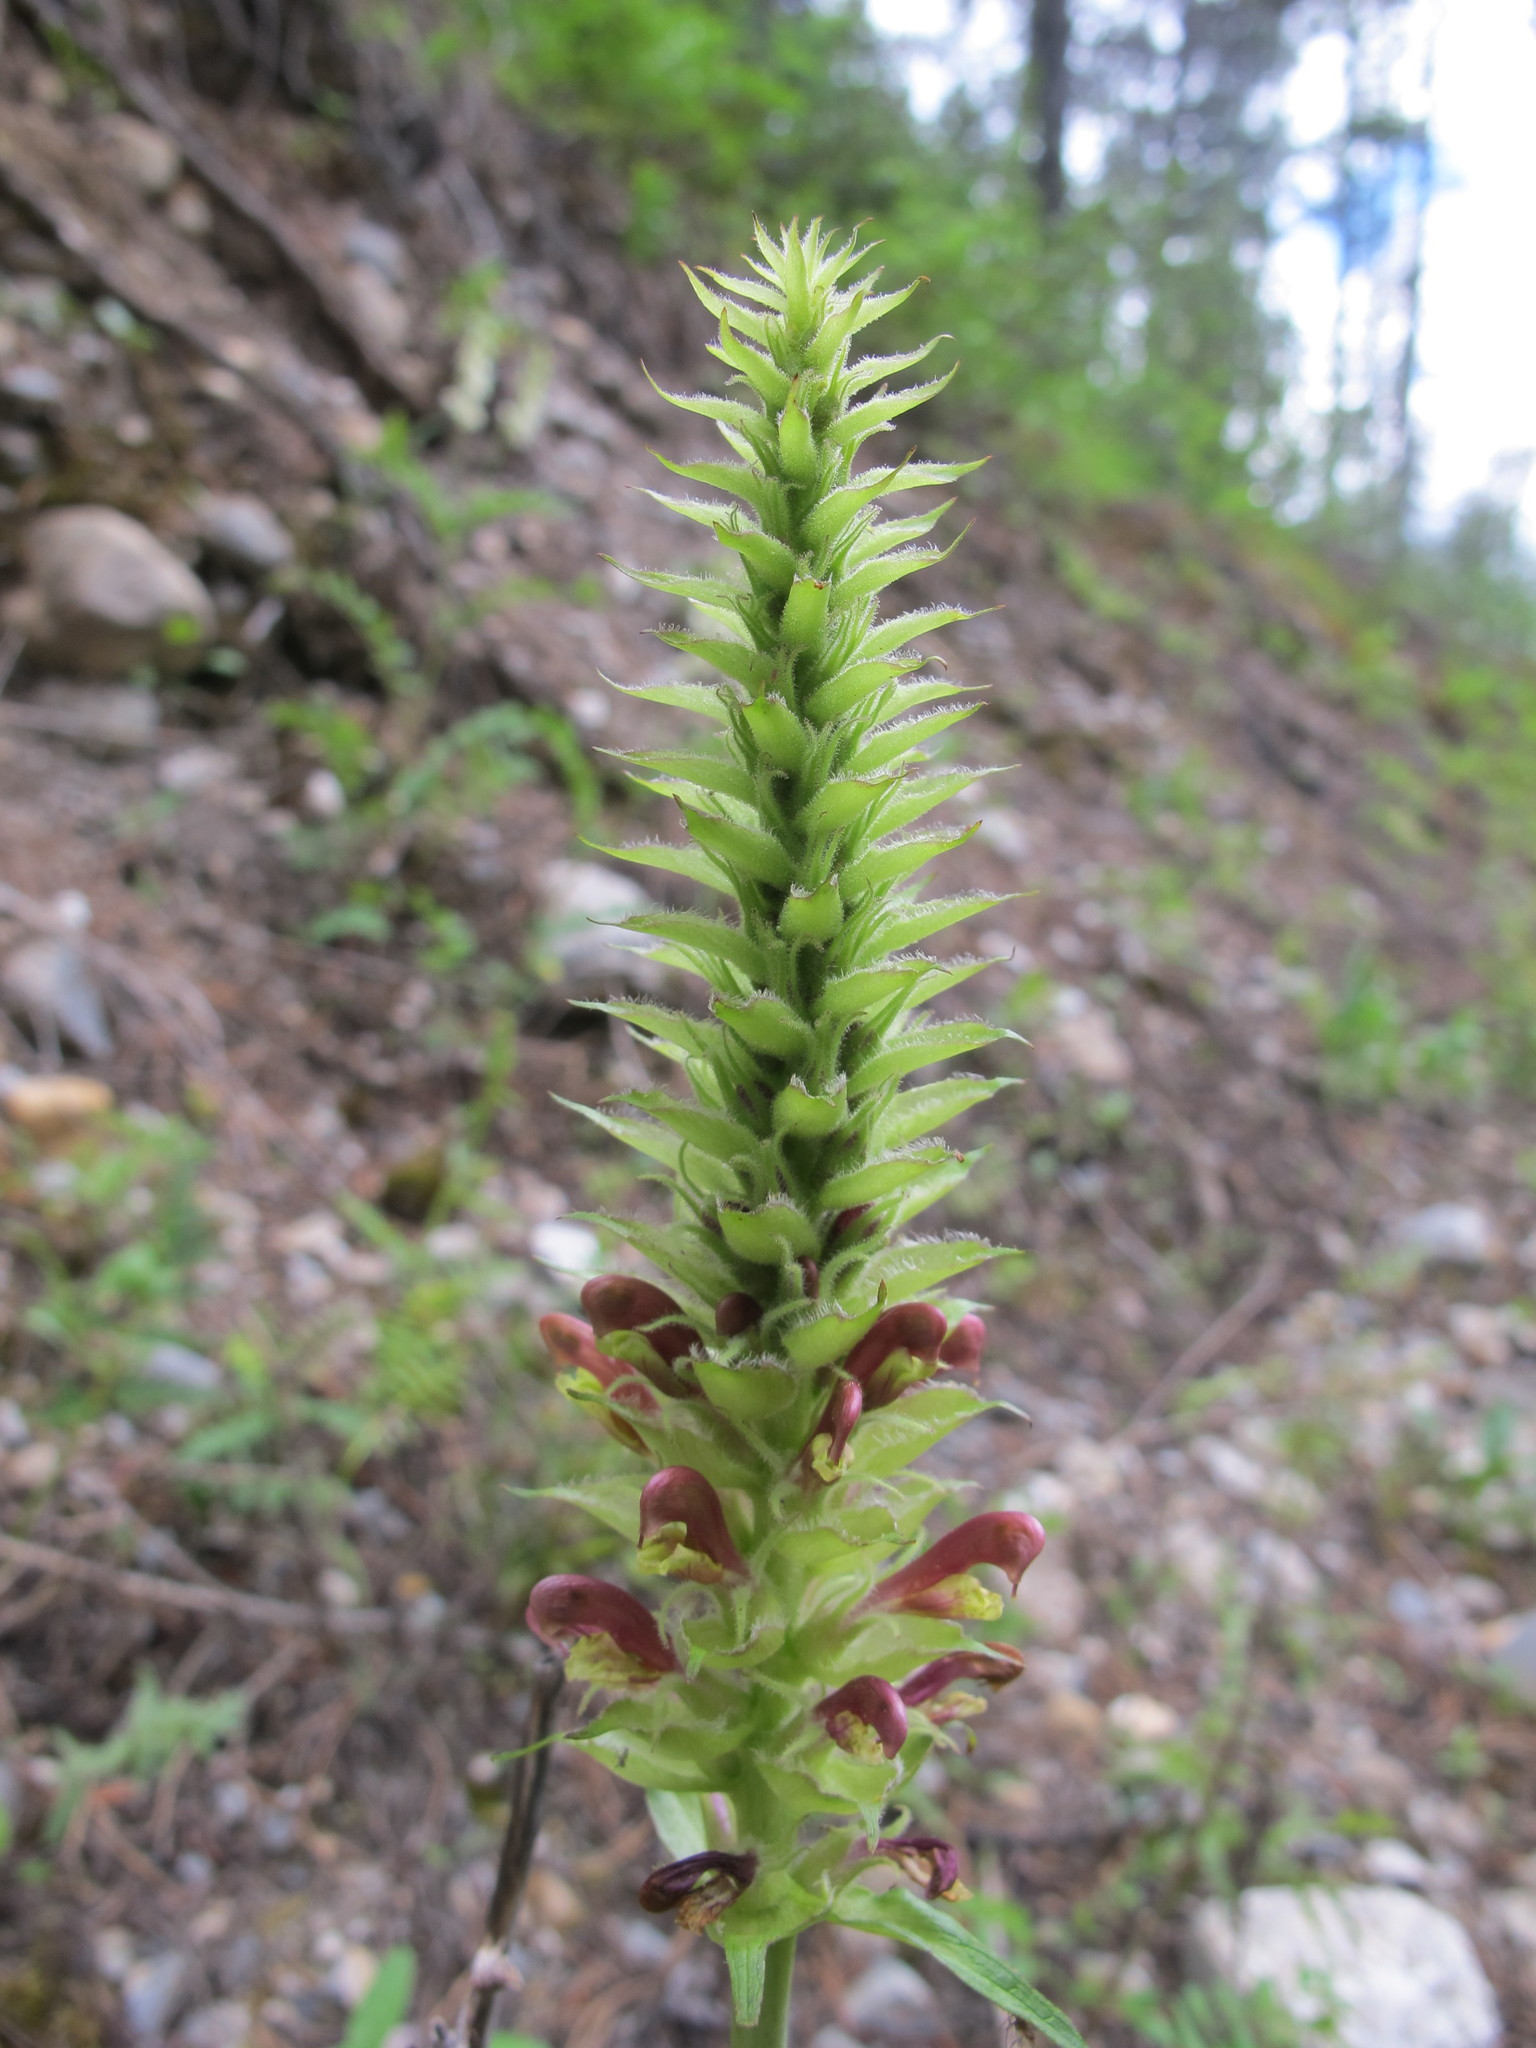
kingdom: Plantae
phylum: Tracheophyta
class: Magnoliopsida
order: Lamiales
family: Orobanchaceae
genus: Pedicularis
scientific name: Pedicularis bracteosa
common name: Bracted lousewort
